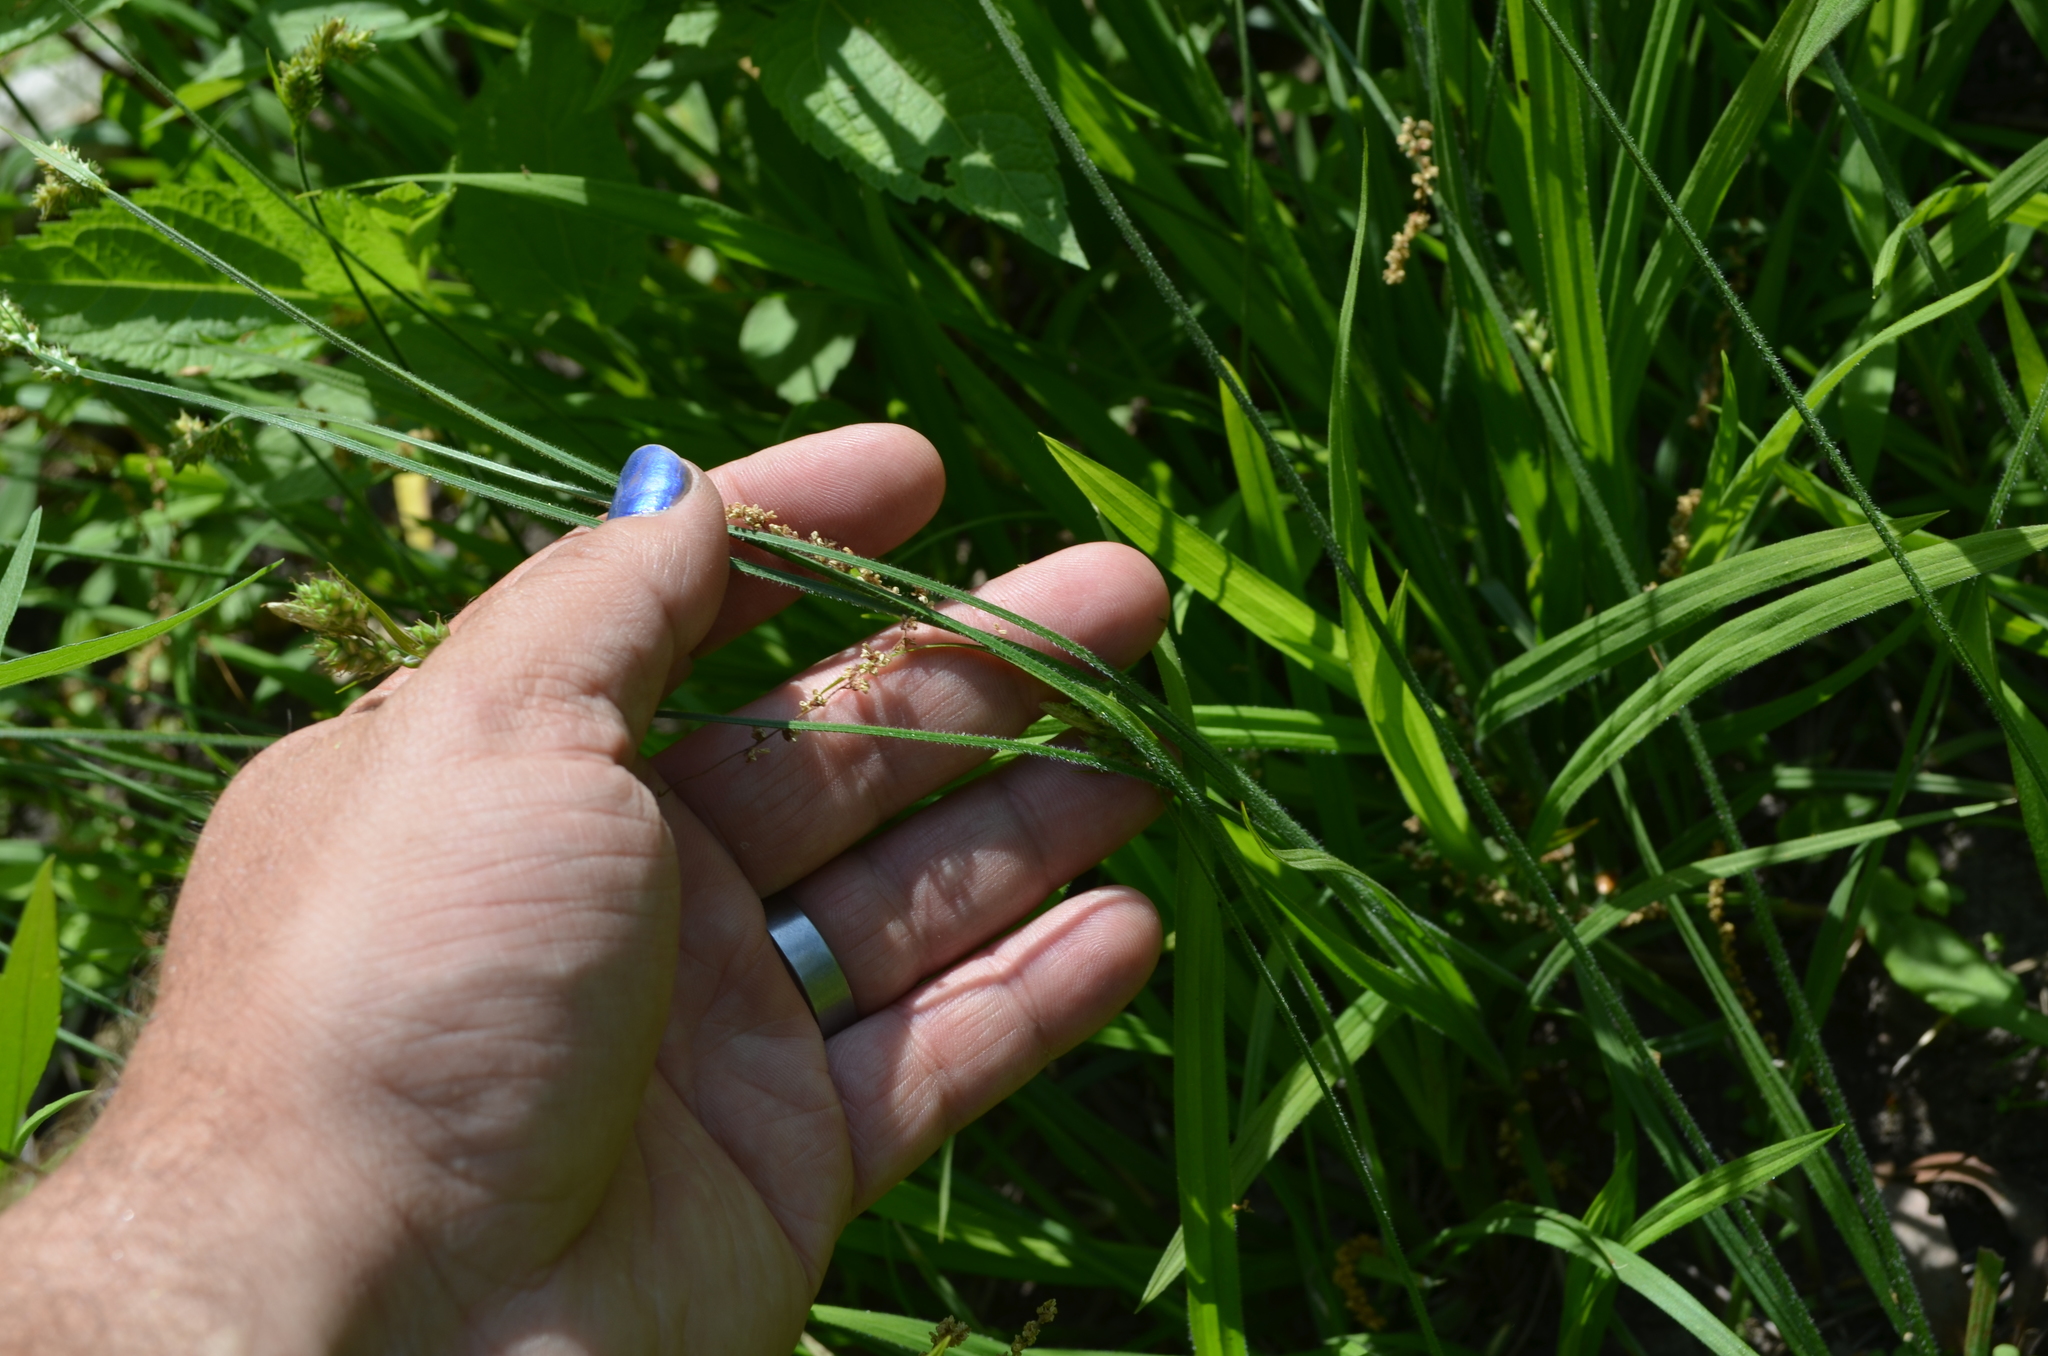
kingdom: Plantae
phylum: Tracheophyta
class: Liliopsida
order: Poales
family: Cyperaceae
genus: Carex
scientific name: Carex hirtifolia
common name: Hairy sedge
